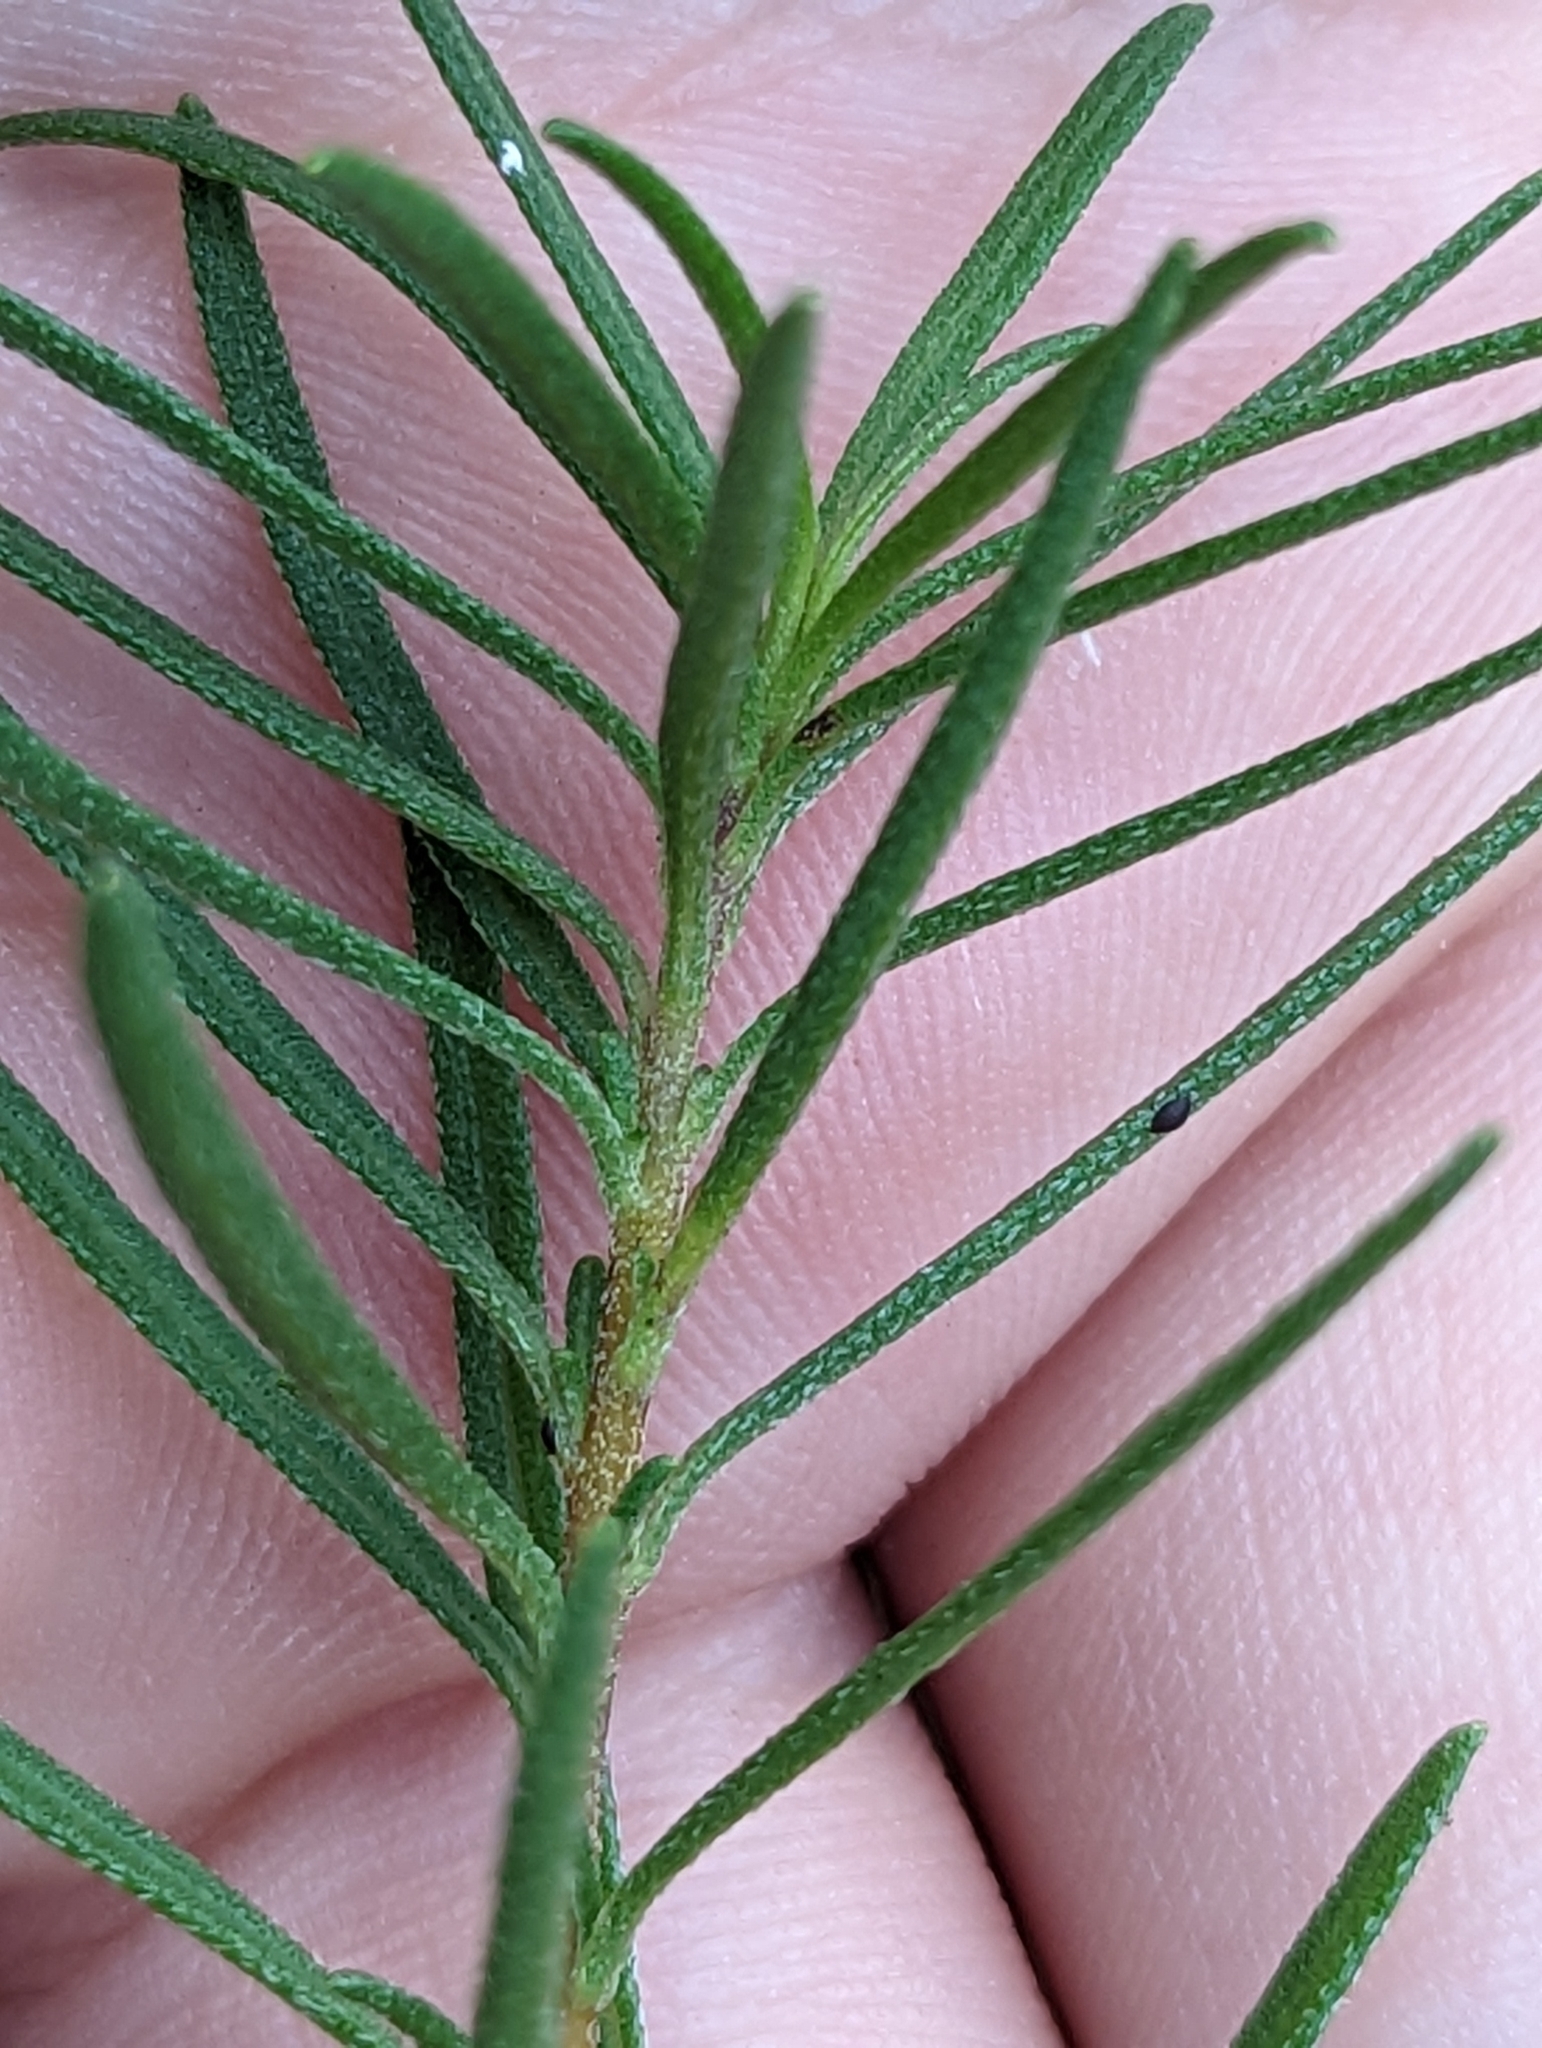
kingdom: Plantae
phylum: Tracheophyta
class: Magnoliopsida
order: Asterales
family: Asteraceae
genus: Iva
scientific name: Iva microcephala
